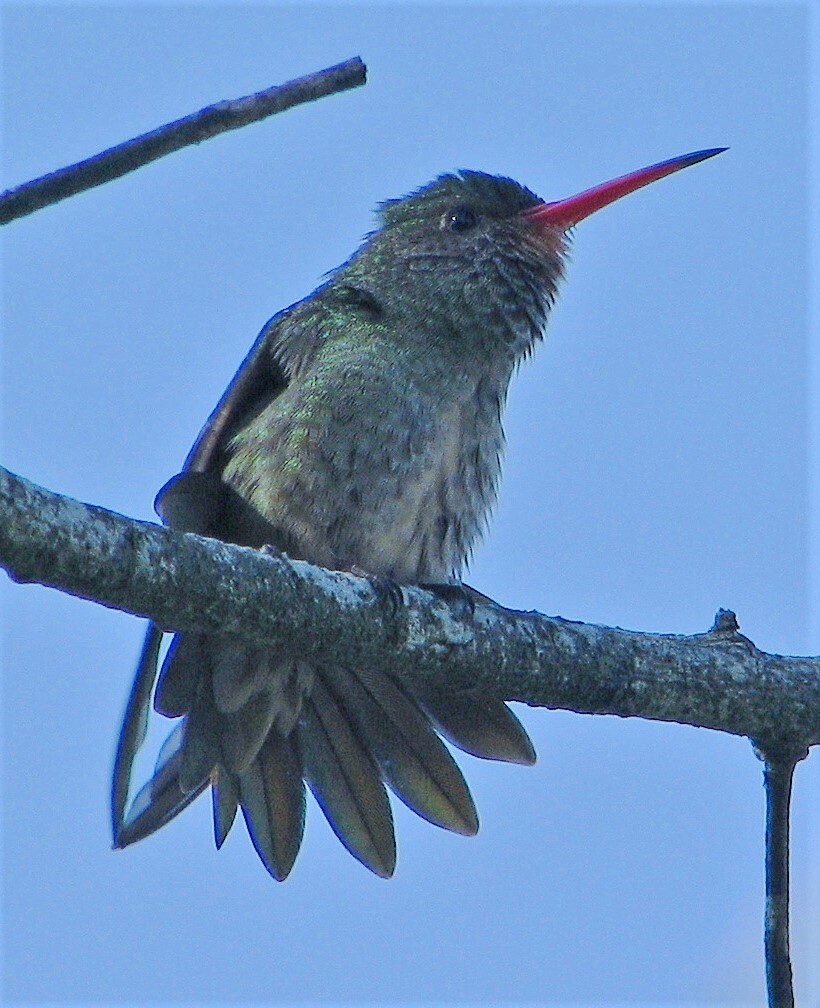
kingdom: Animalia
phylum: Chordata
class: Aves
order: Apodiformes
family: Trochilidae
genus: Hylocharis
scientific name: Hylocharis chrysura
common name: Gilded sapphire
